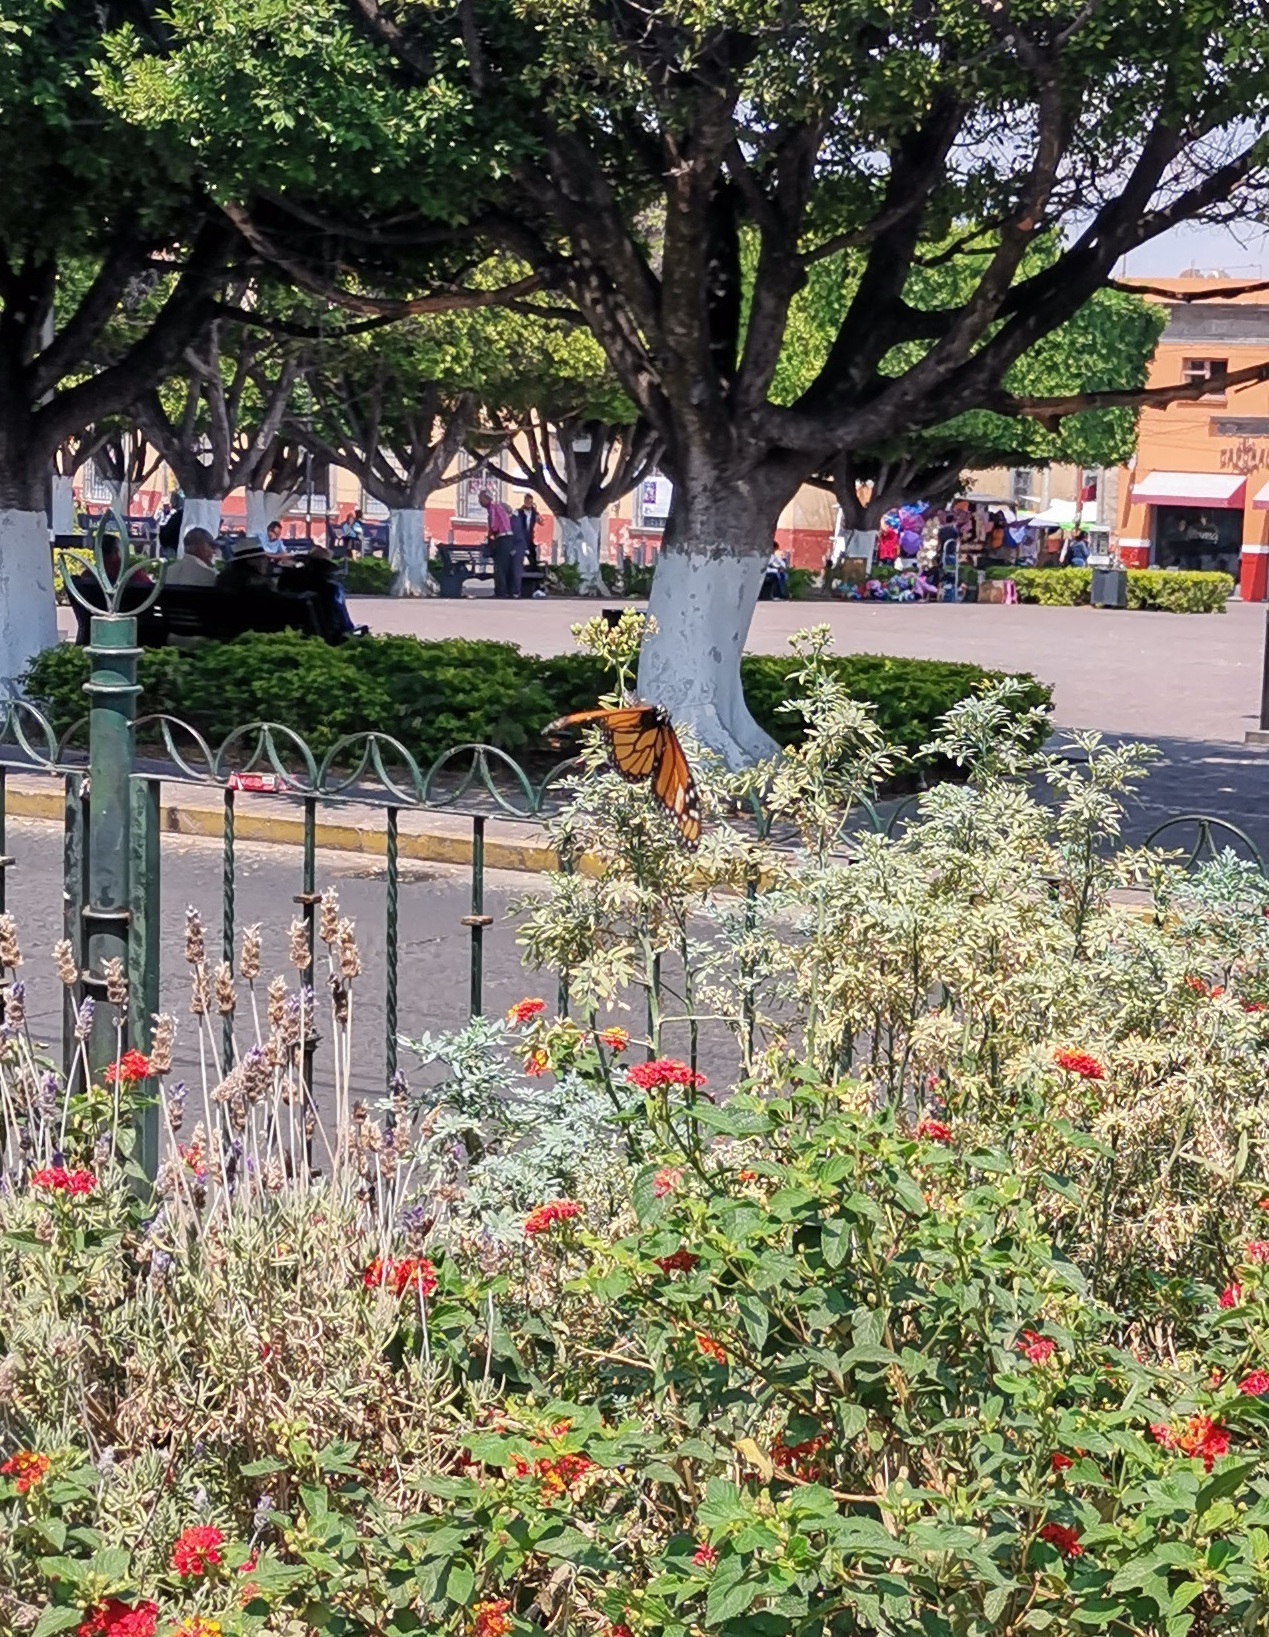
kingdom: Animalia
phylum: Arthropoda
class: Insecta
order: Lepidoptera
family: Nymphalidae
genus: Danaus
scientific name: Danaus plexippus
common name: Monarch
